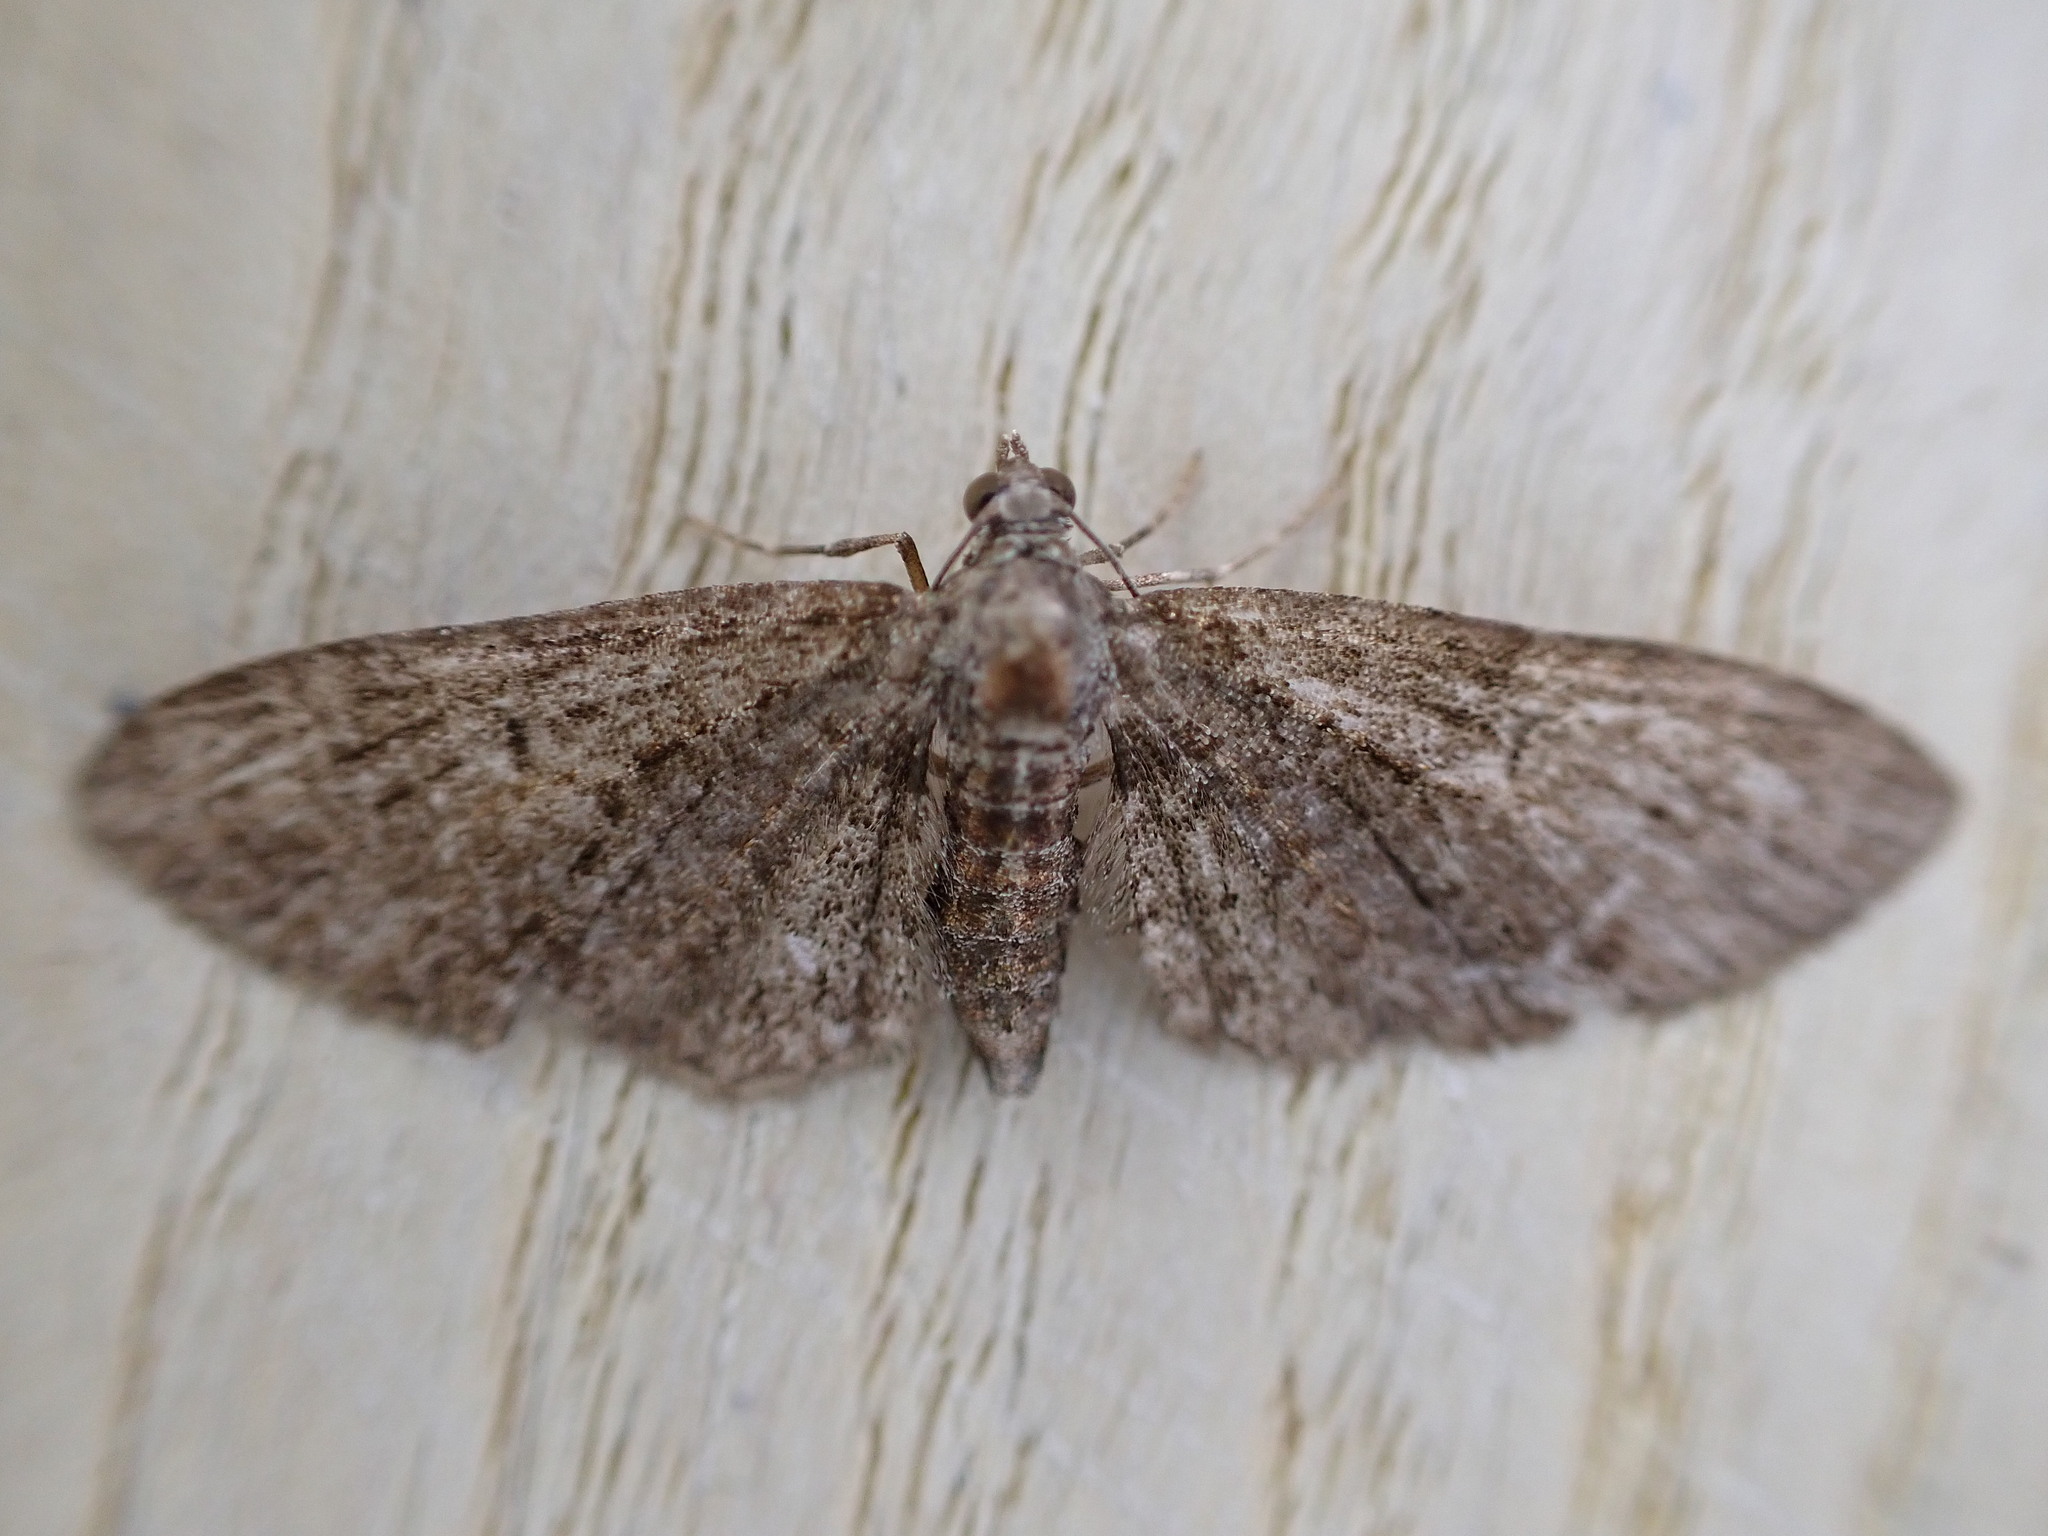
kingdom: Animalia
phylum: Arthropoda
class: Insecta
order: Lepidoptera
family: Geometridae
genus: Eupithecia
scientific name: Eupithecia abbreviata
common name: Brindled pug
